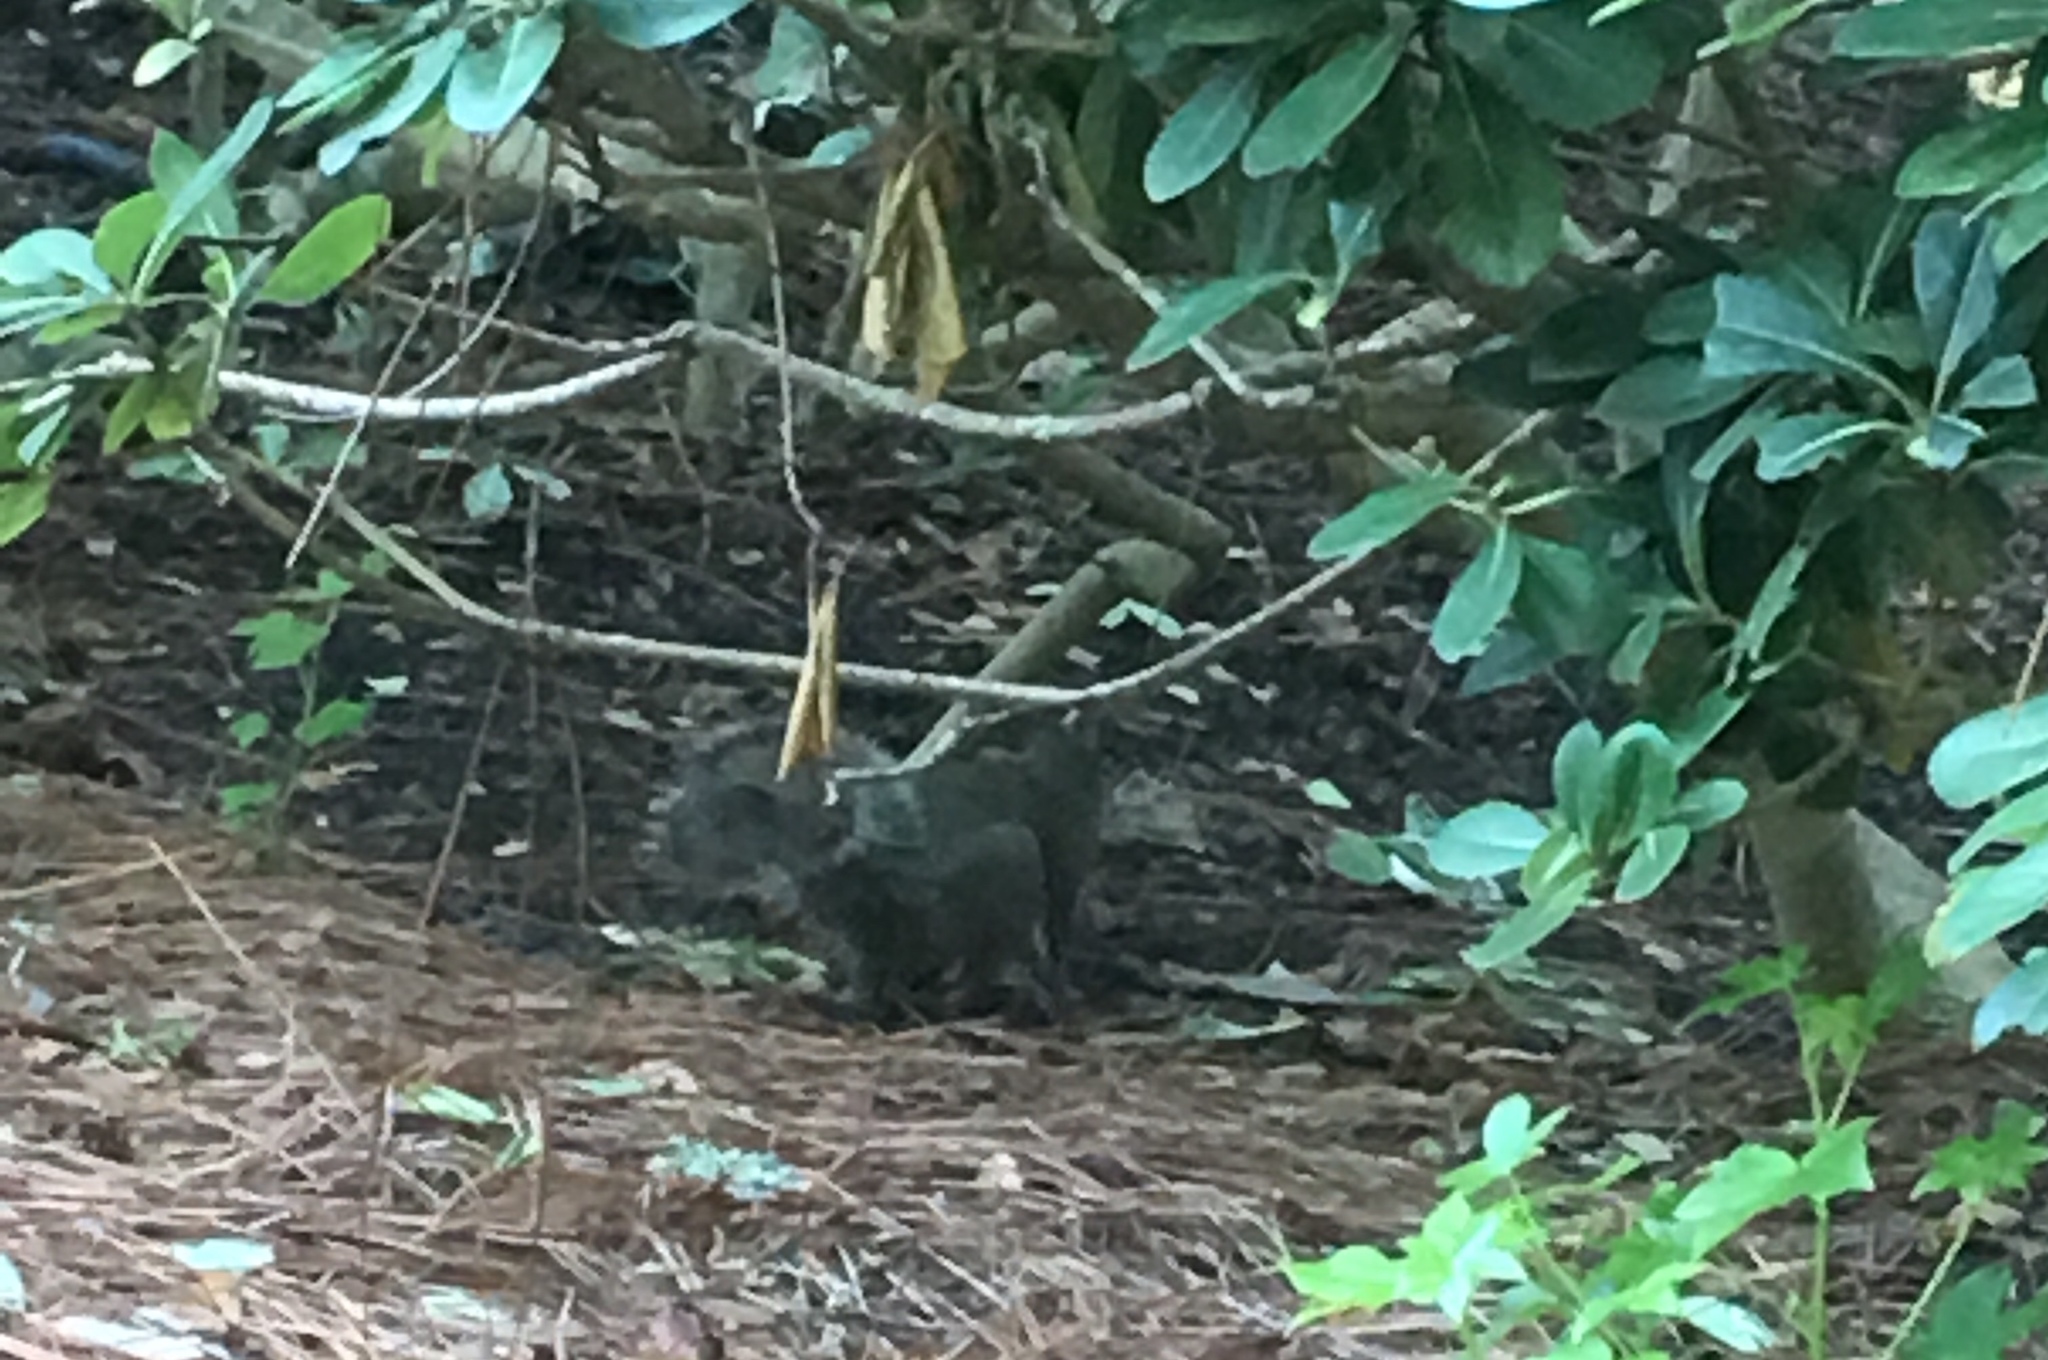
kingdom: Animalia
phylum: Chordata
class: Mammalia
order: Rodentia
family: Sciuridae
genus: Sciurus
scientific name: Sciurus carolinensis
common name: Eastern gray squirrel
